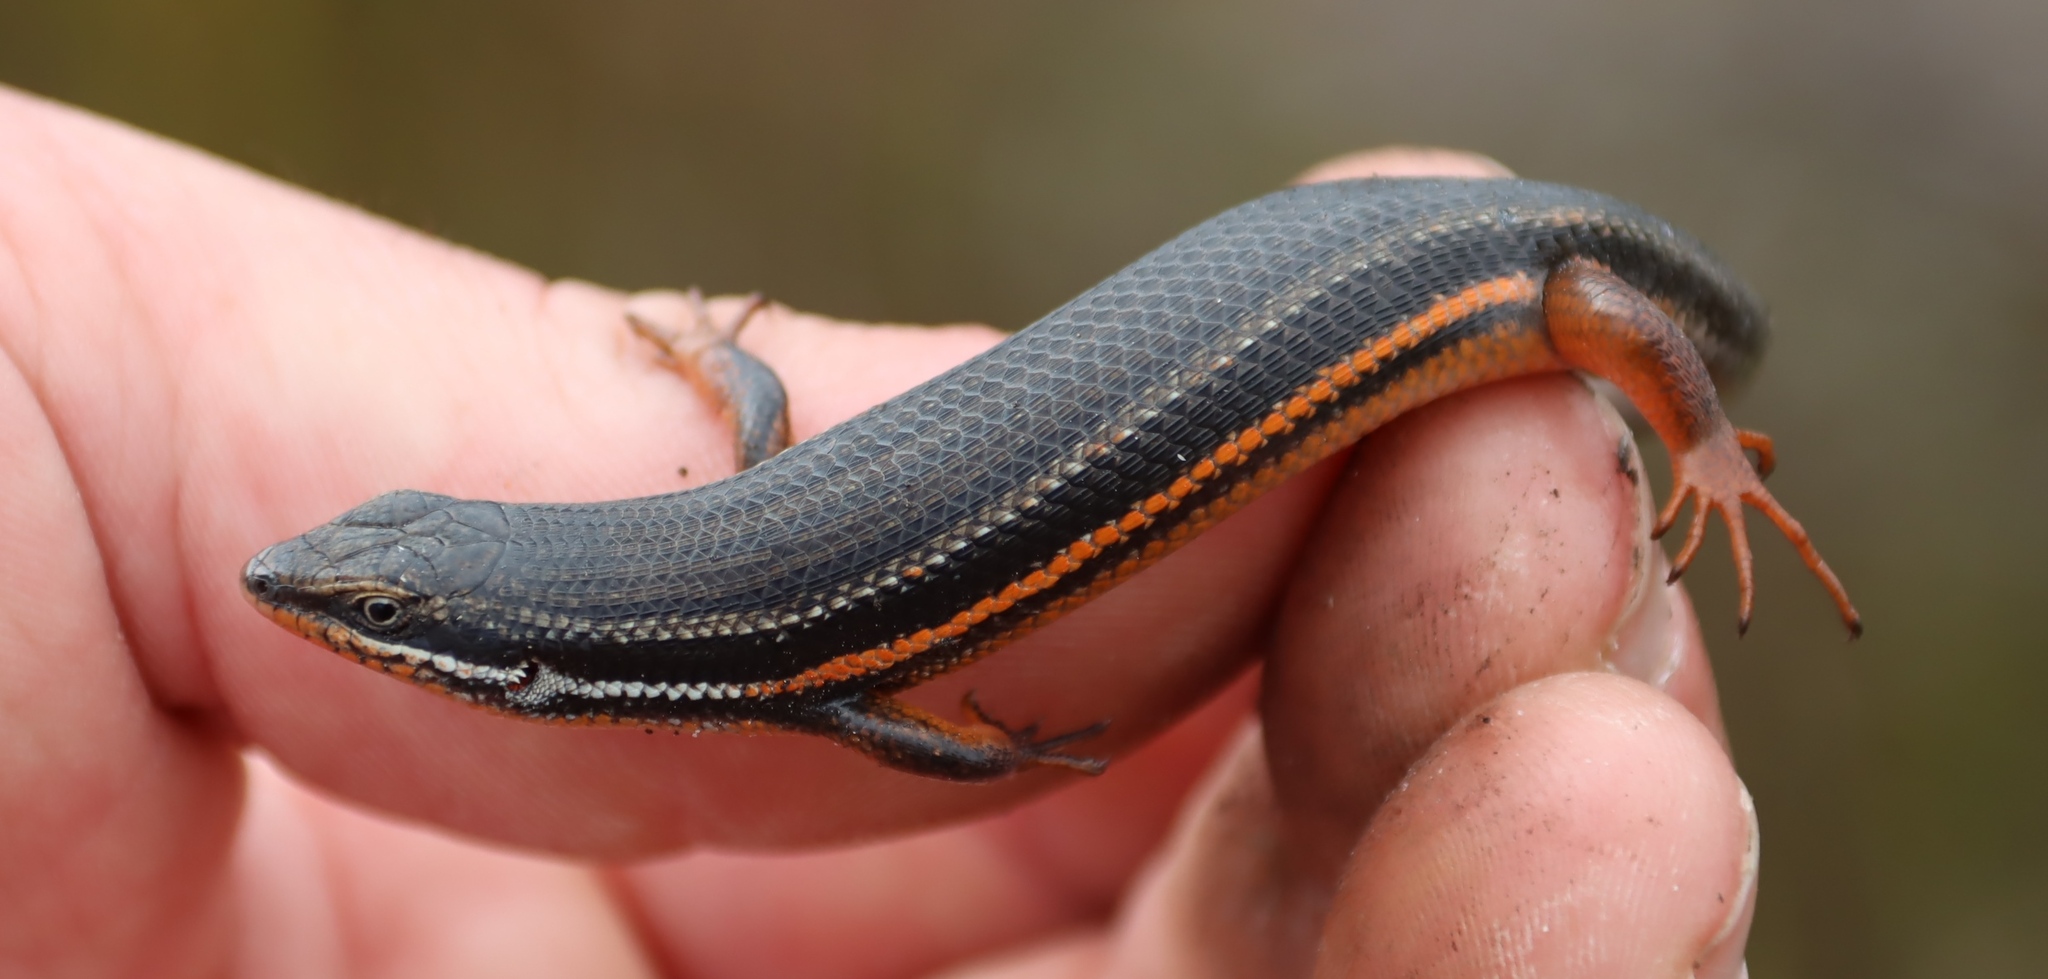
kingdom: Animalia
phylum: Chordata
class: Squamata
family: Scincidae
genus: Trachylepis
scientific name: Trachylepis homalocephala
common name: Red-sided skink
